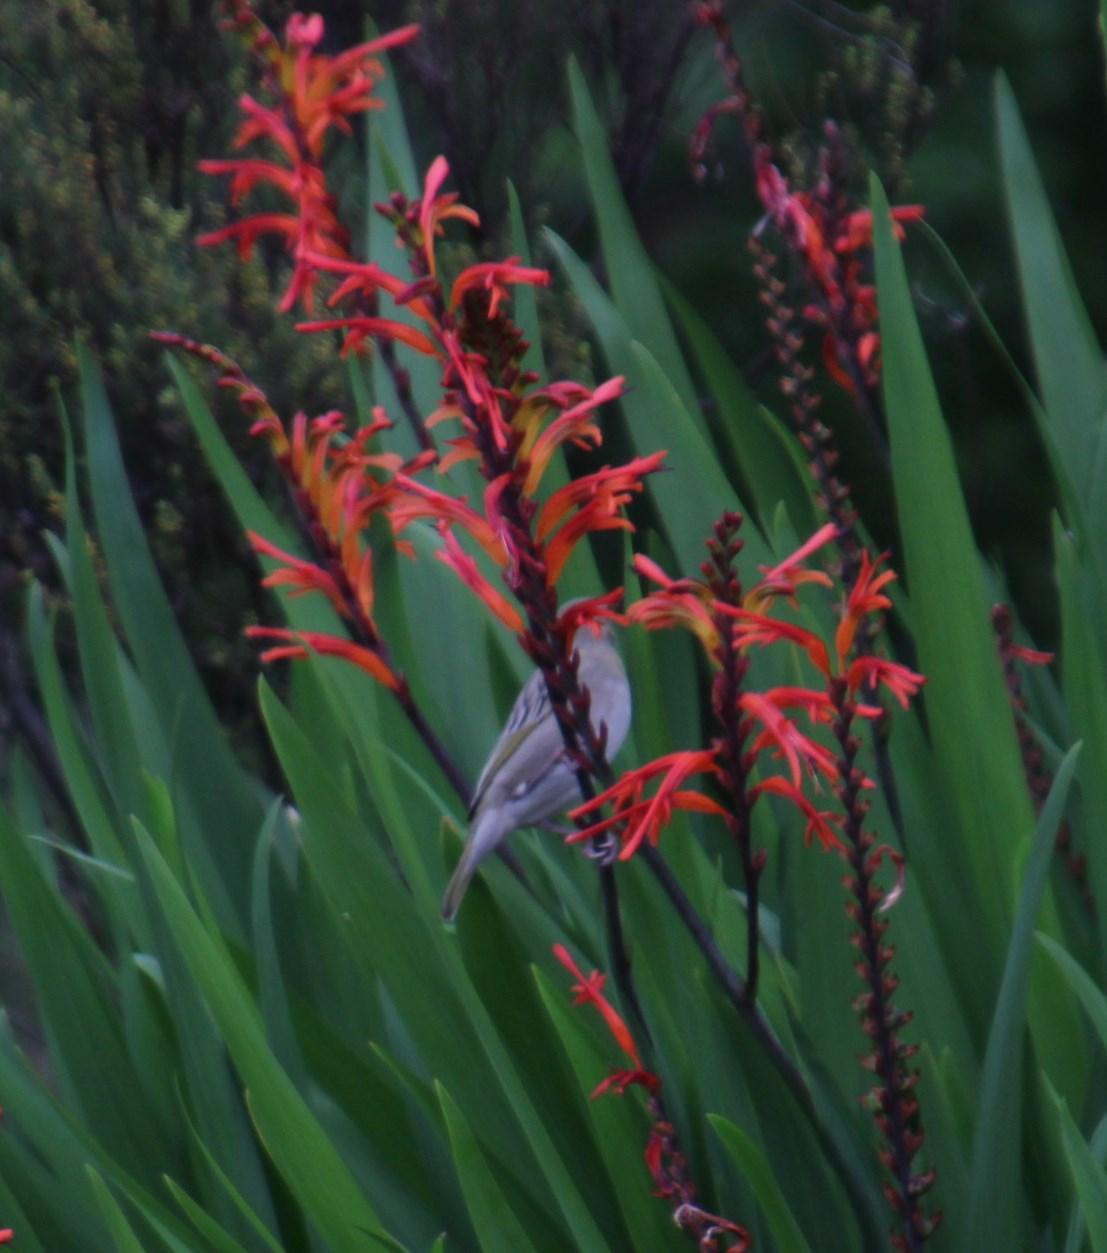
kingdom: Animalia
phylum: Chordata
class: Aves
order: Passeriformes
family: Ploceidae
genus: Ploceus
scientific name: Ploceus capensis
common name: Cape weaver
